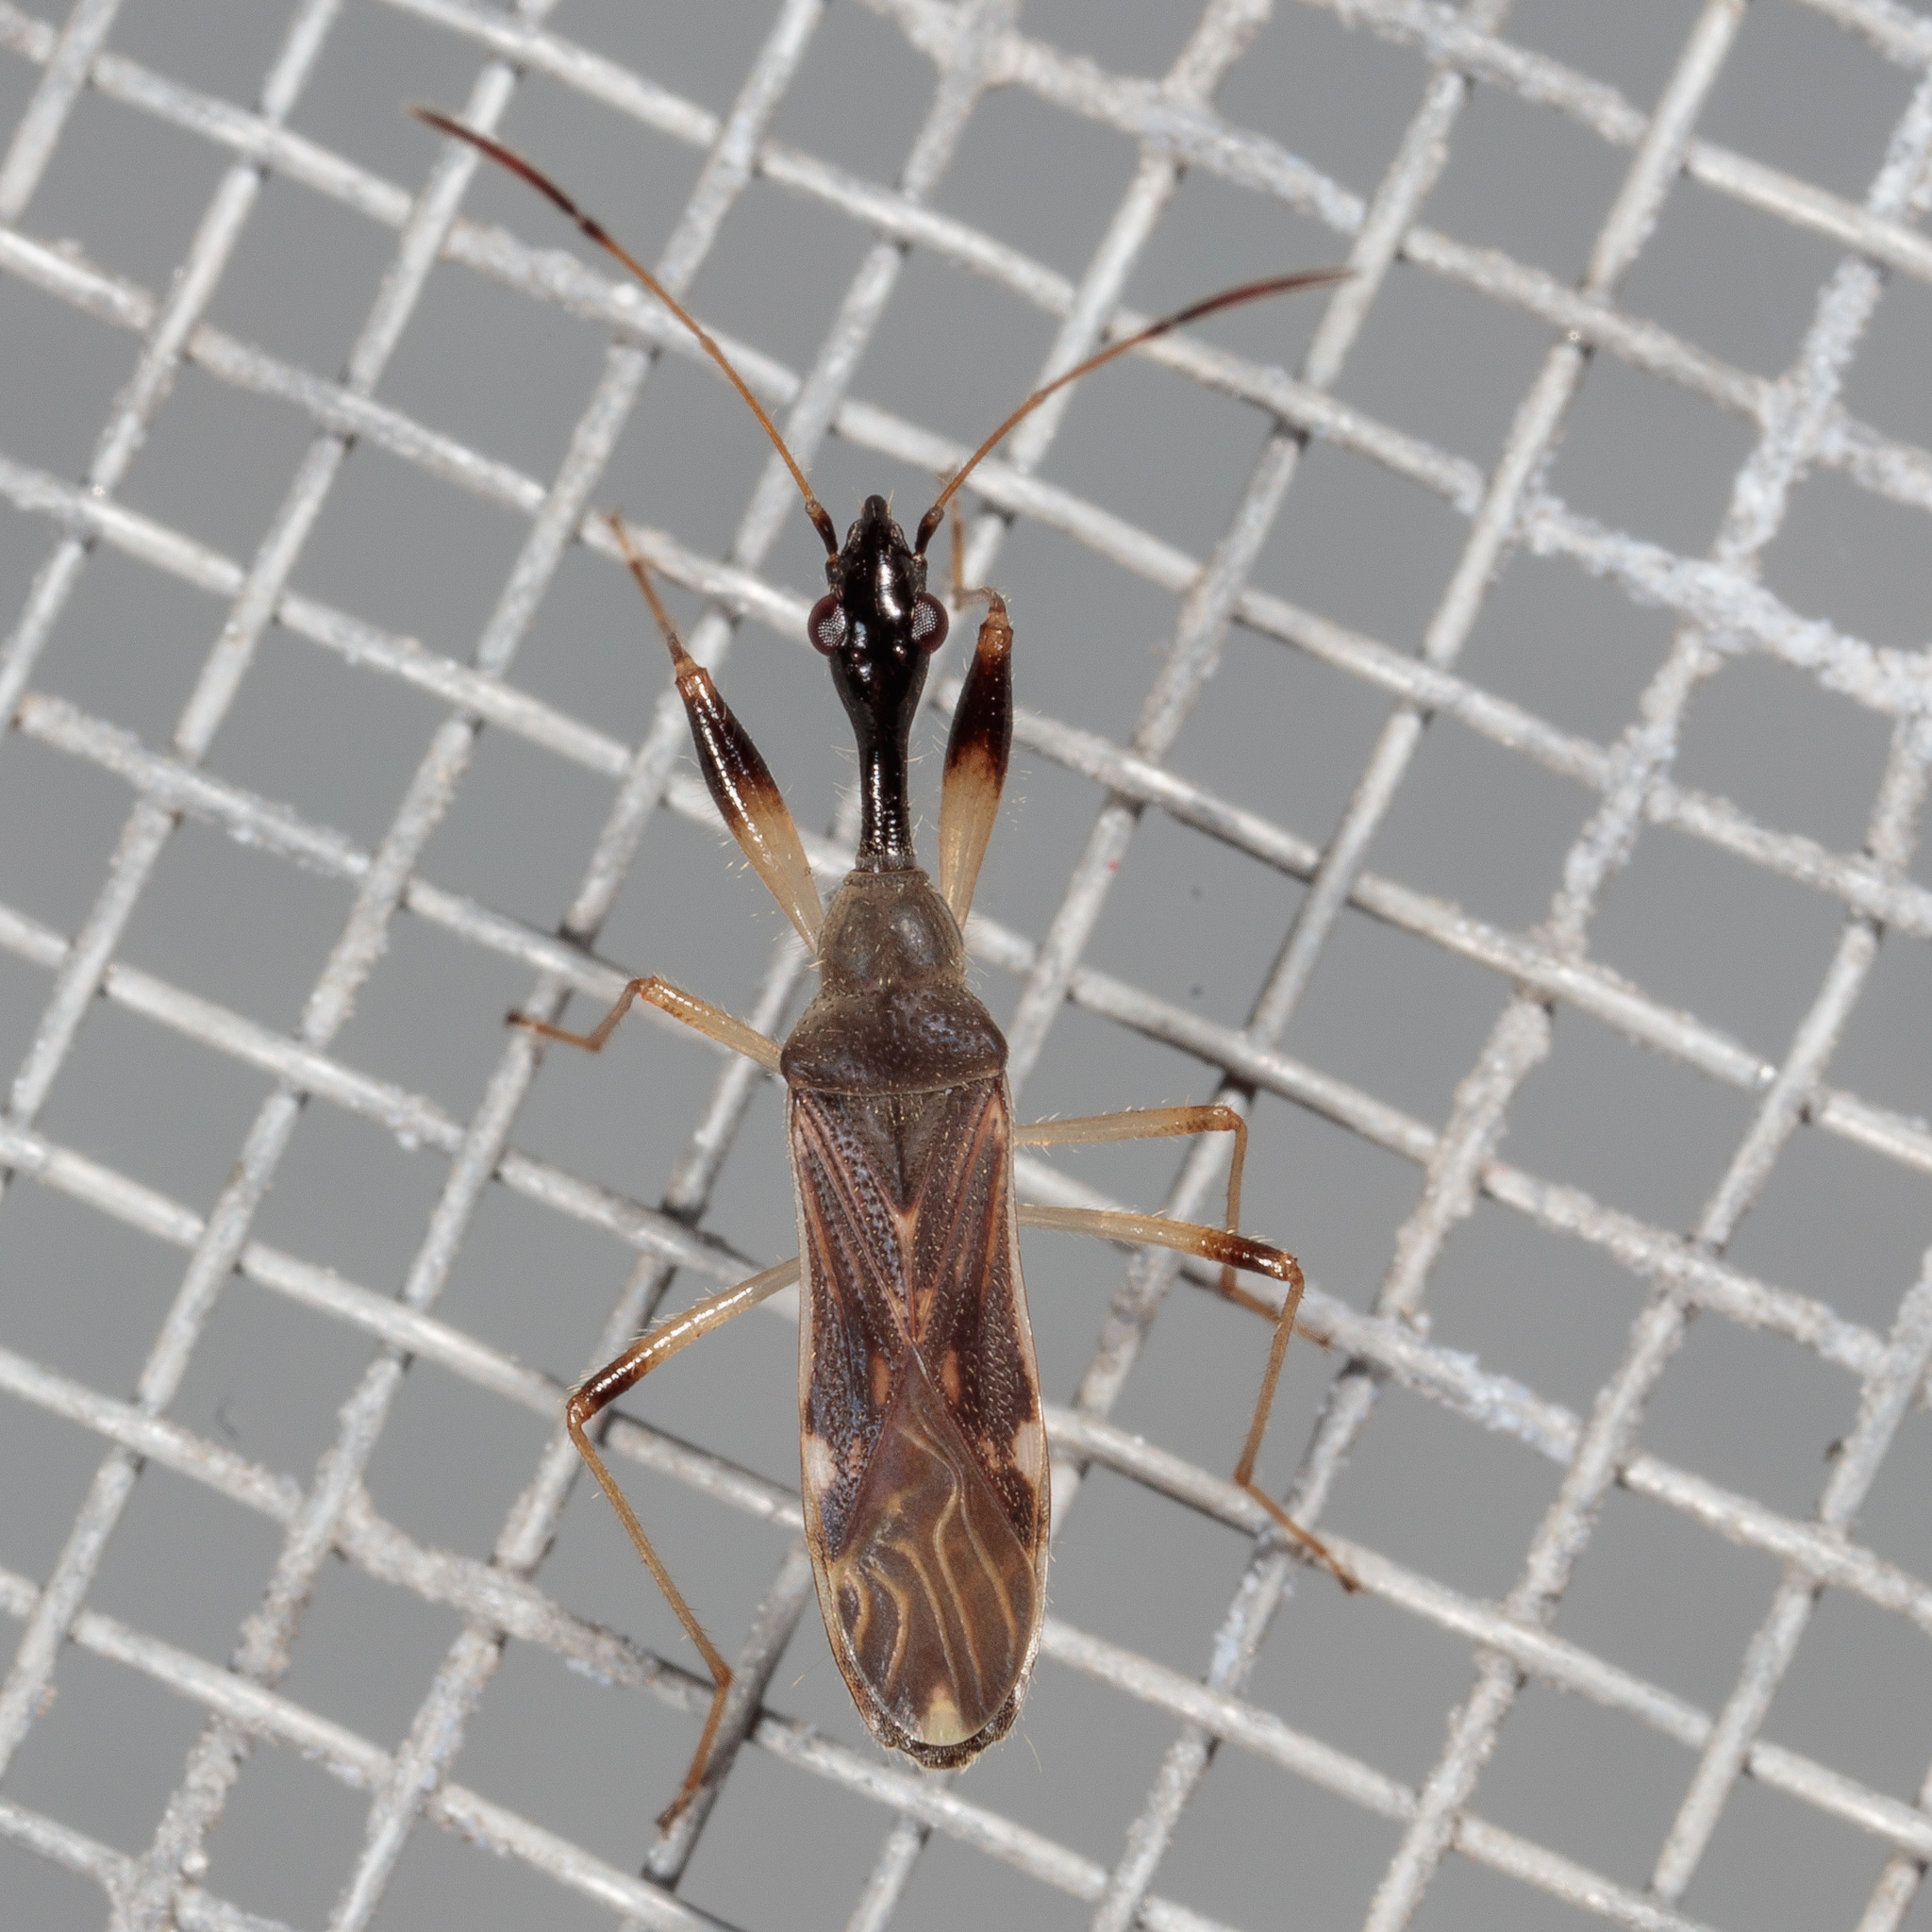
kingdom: Animalia
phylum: Arthropoda
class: Insecta
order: Hemiptera
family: Rhyparochromidae
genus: Myodocha
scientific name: Myodocha serripes
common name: Long-necked seed bug
